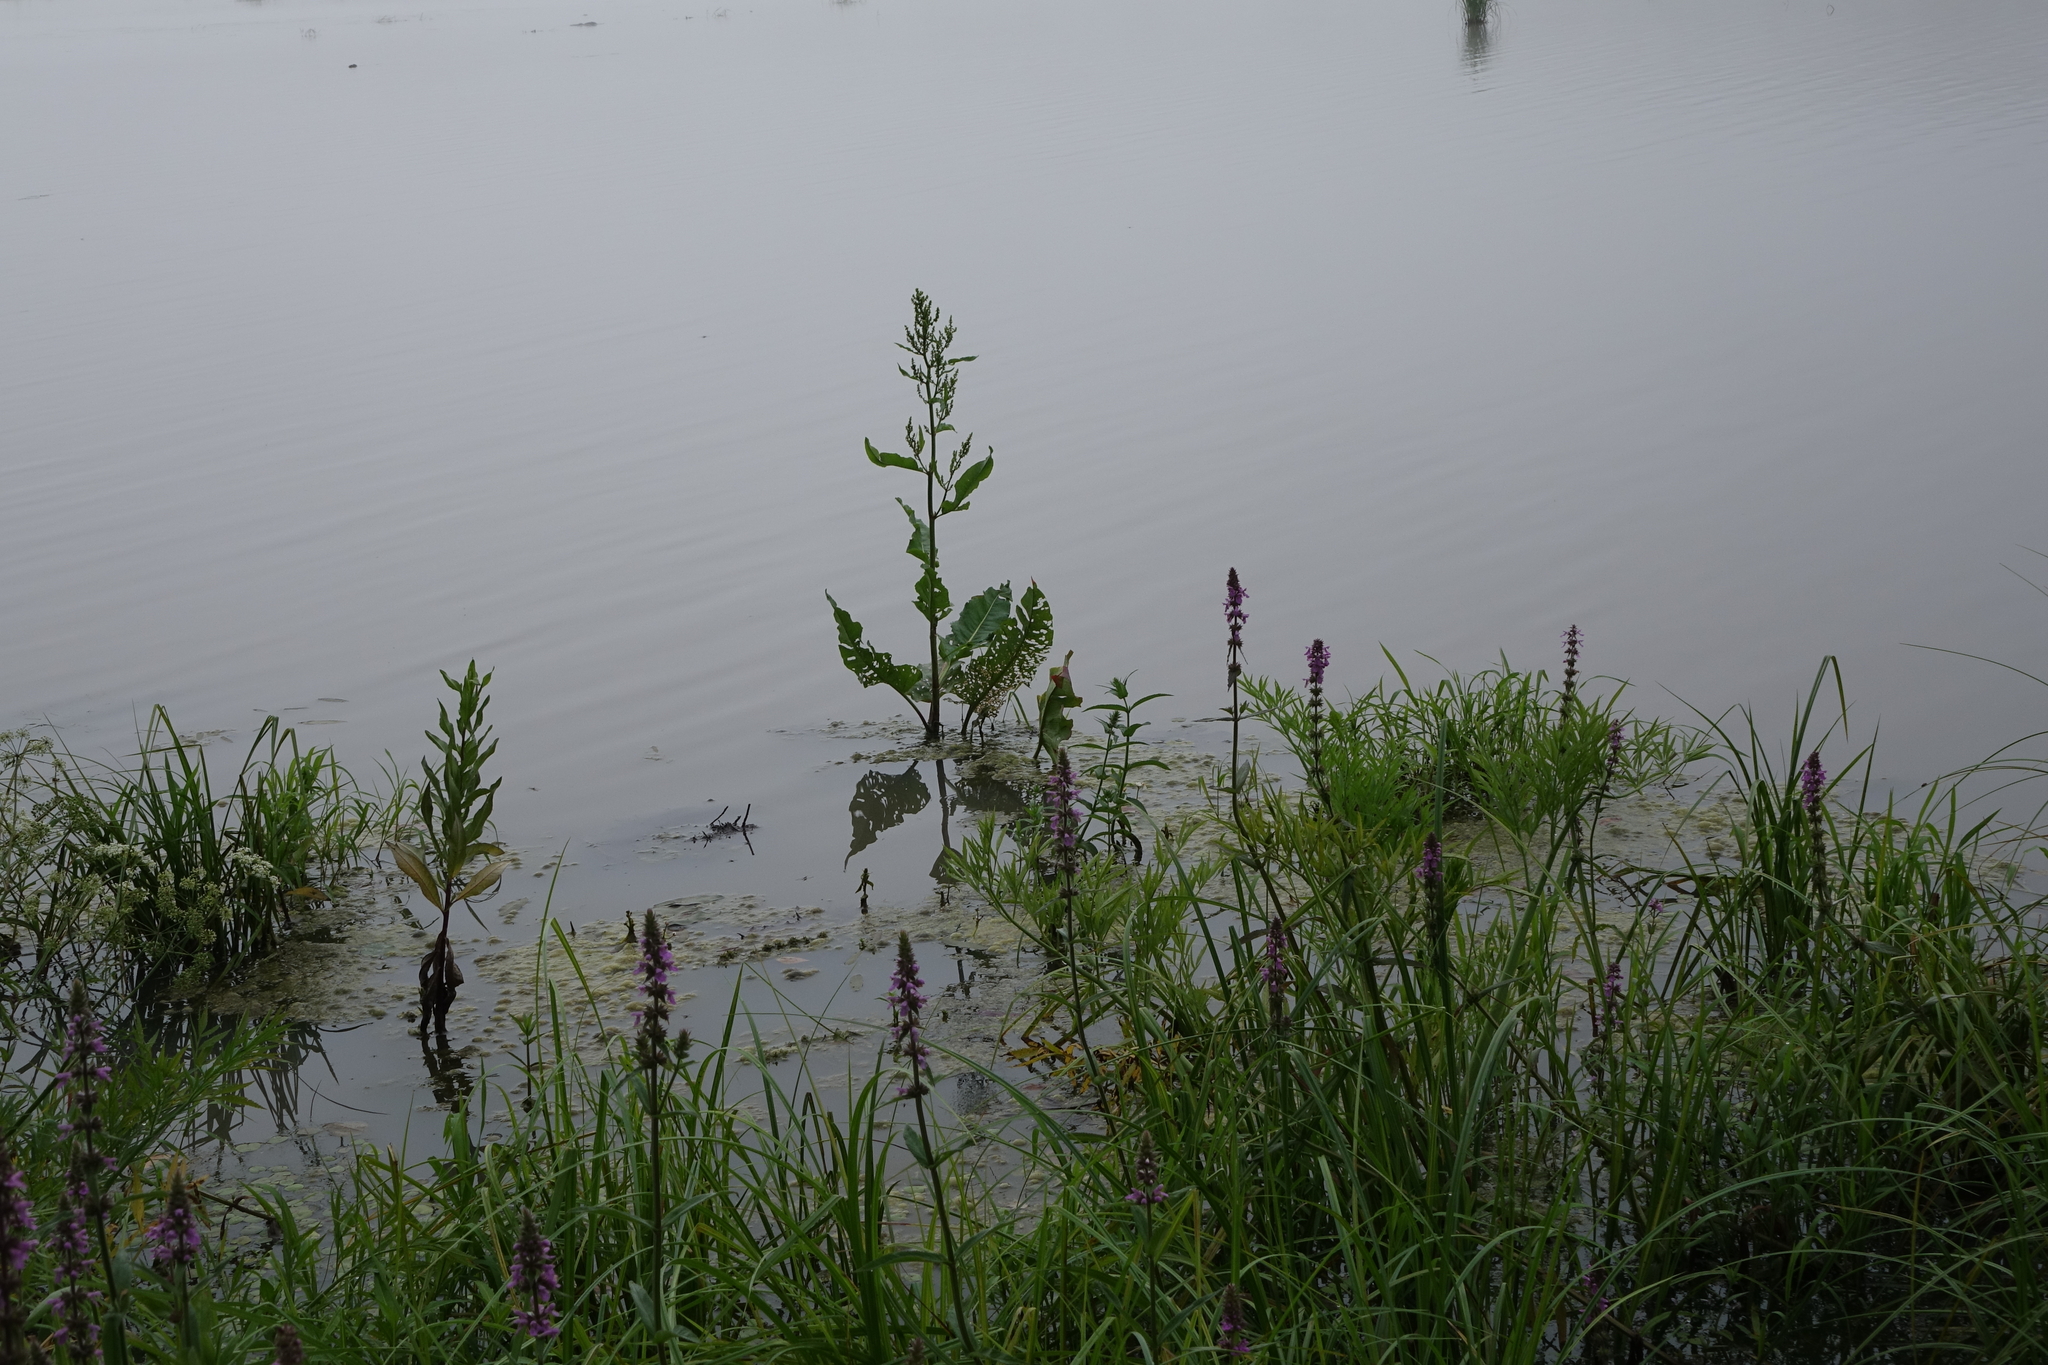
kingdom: Plantae
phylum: Tracheophyta
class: Magnoliopsida
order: Caryophyllales
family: Polygonaceae
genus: Rumex
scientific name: Rumex aquaticus
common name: Scottish dock
